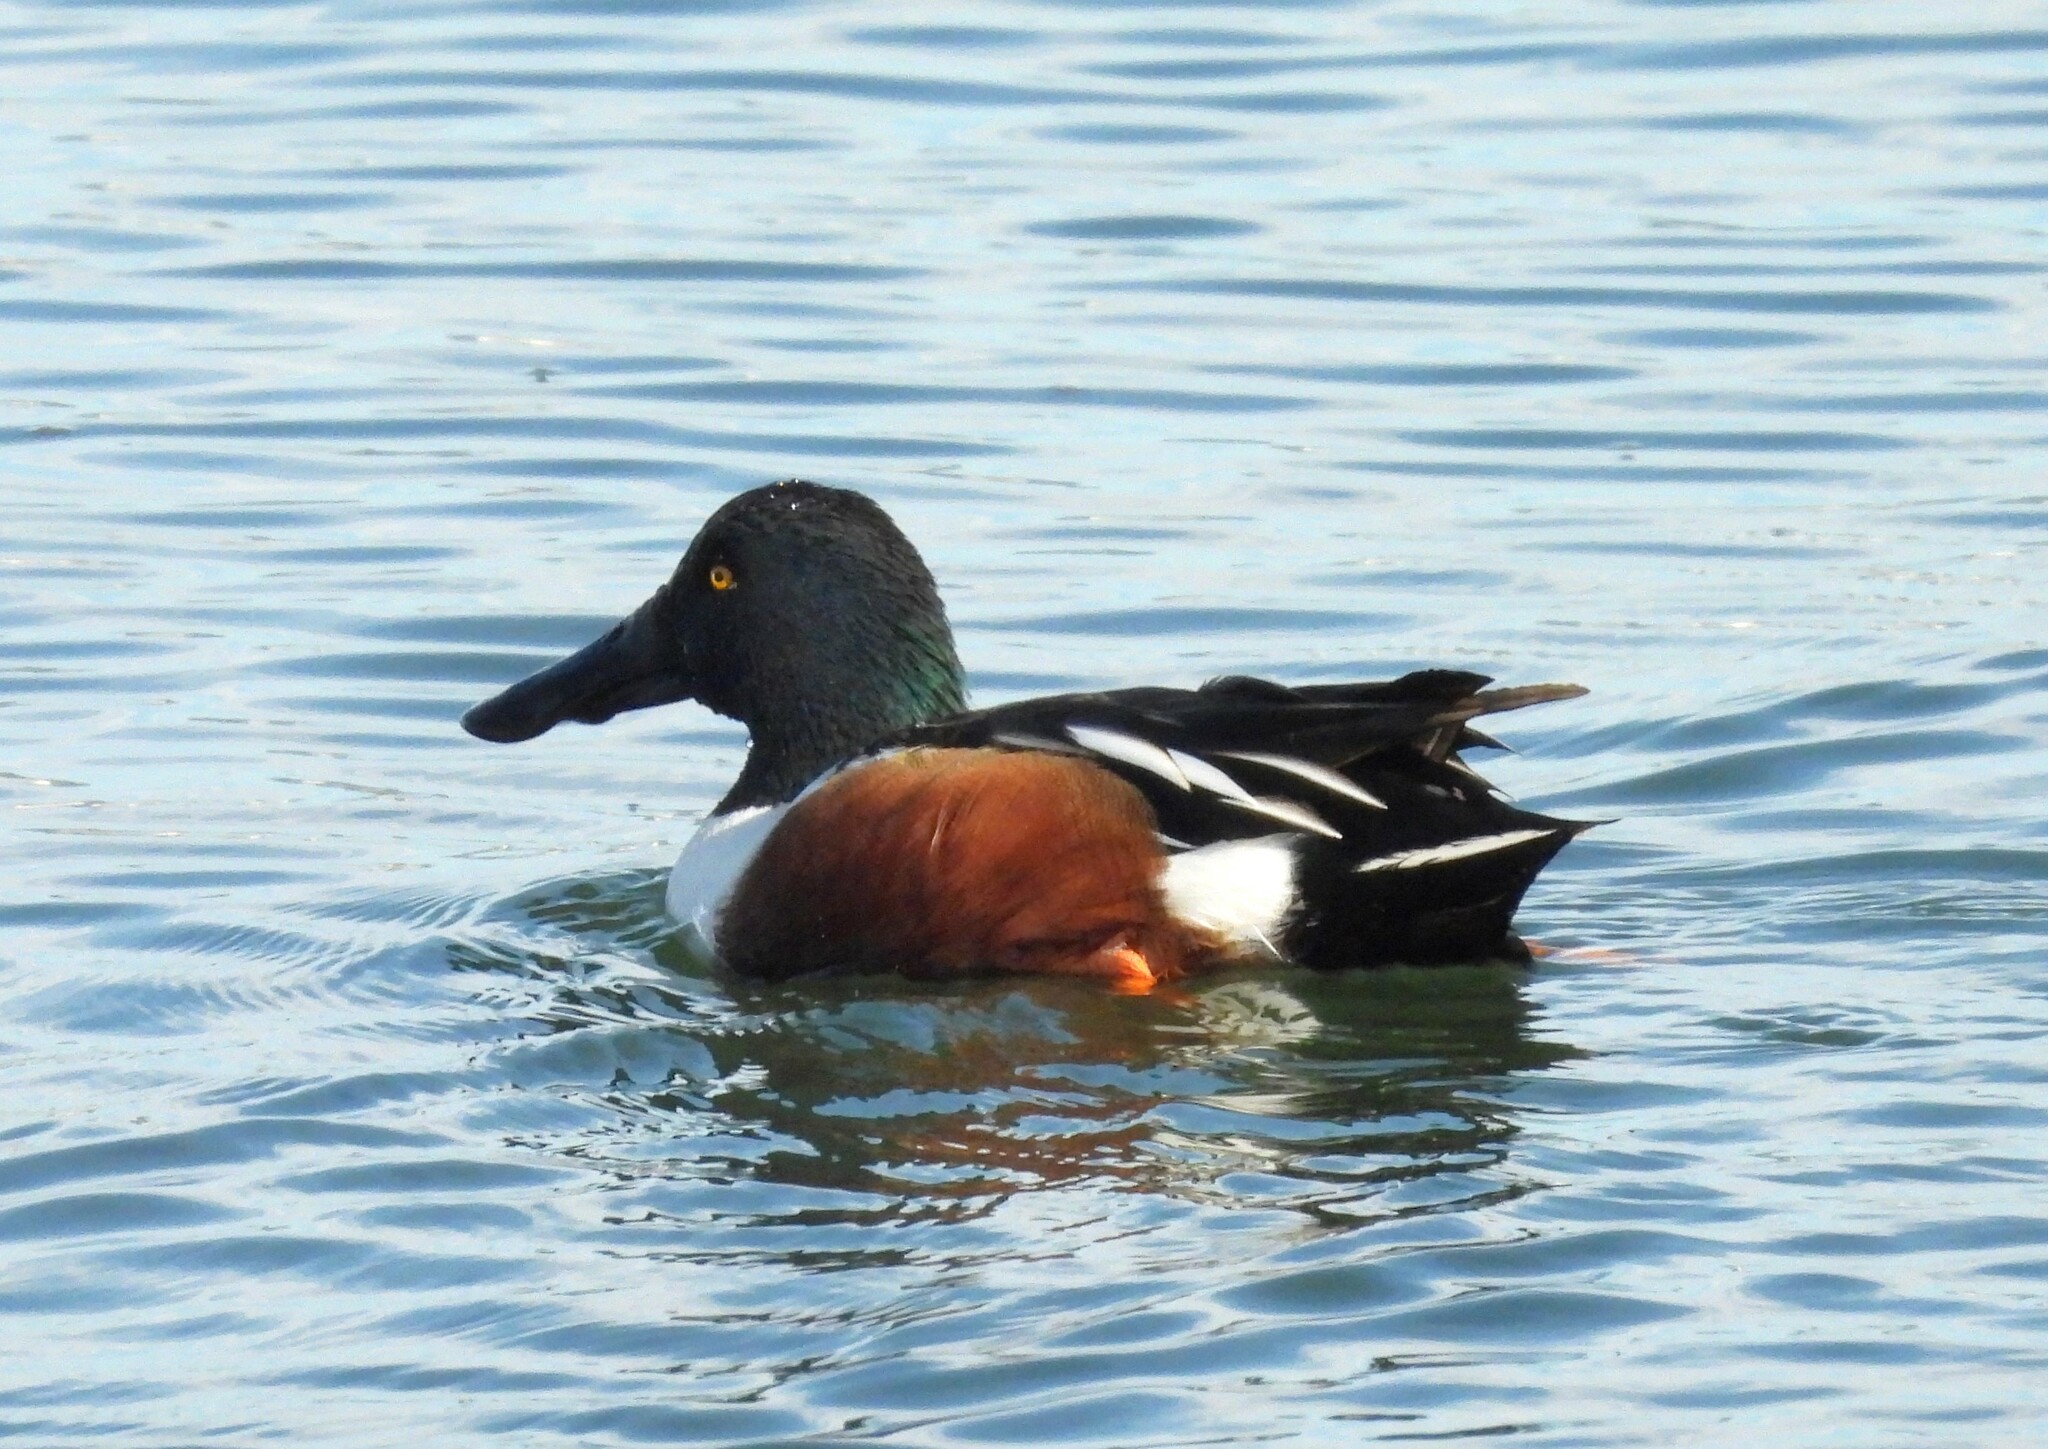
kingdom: Animalia
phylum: Chordata
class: Aves
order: Anseriformes
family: Anatidae
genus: Spatula
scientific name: Spatula clypeata
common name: Northern shoveler
